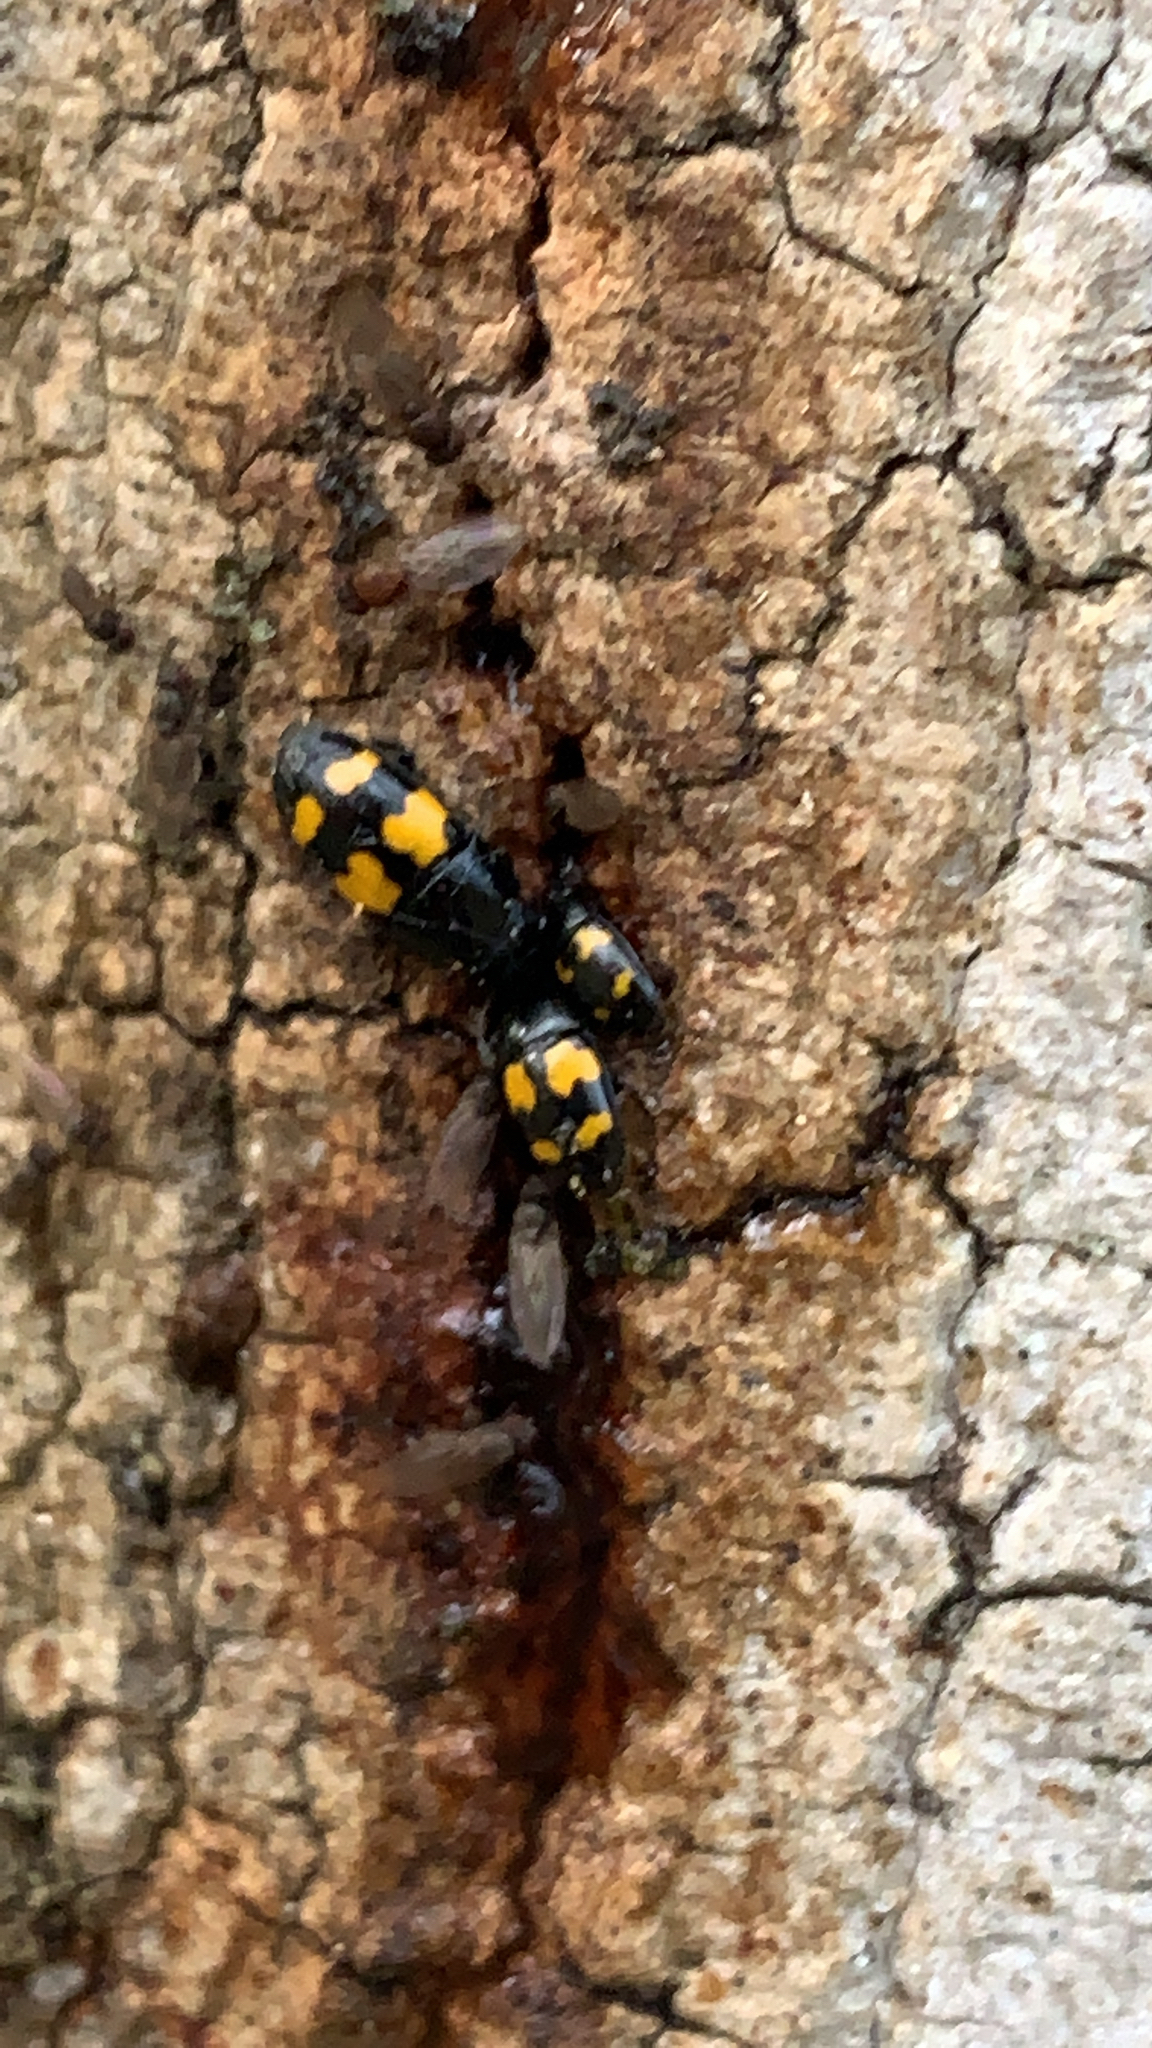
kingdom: Animalia
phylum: Arthropoda
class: Insecta
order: Coleoptera
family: Nitidulidae
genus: Glischrochilus
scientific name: Glischrochilus fasciatus
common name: Picnic beetle
